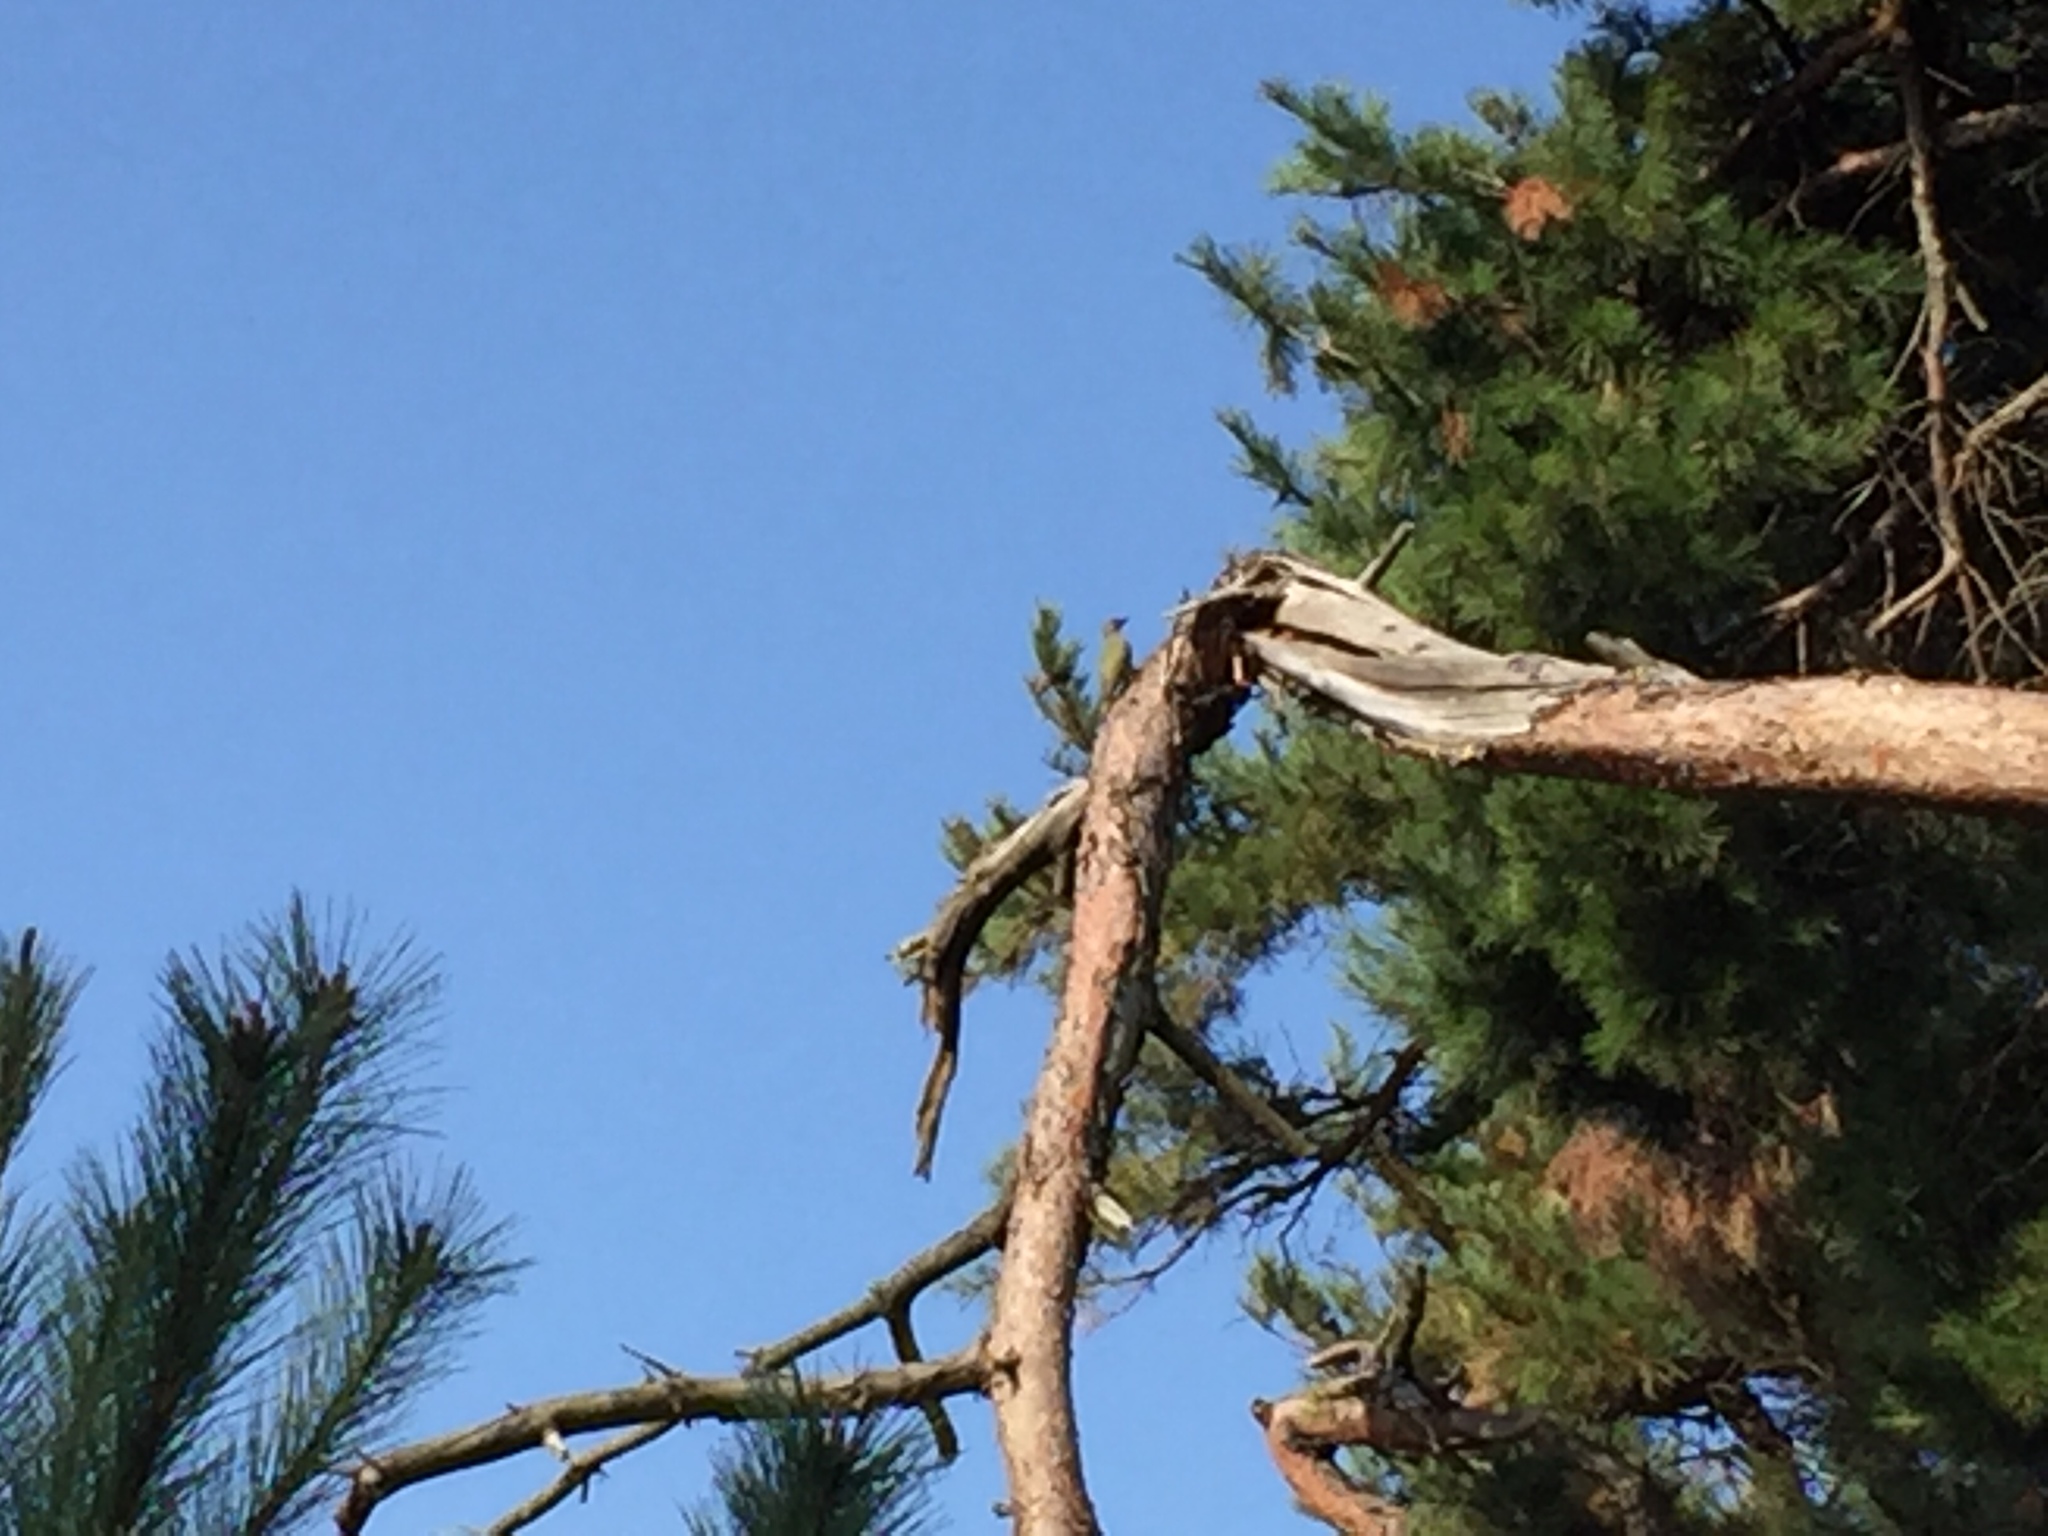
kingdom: Animalia
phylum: Chordata
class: Aves
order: Piciformes
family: Picidae
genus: Picus
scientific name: Picus canus
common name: Grey-headed woodpecker
